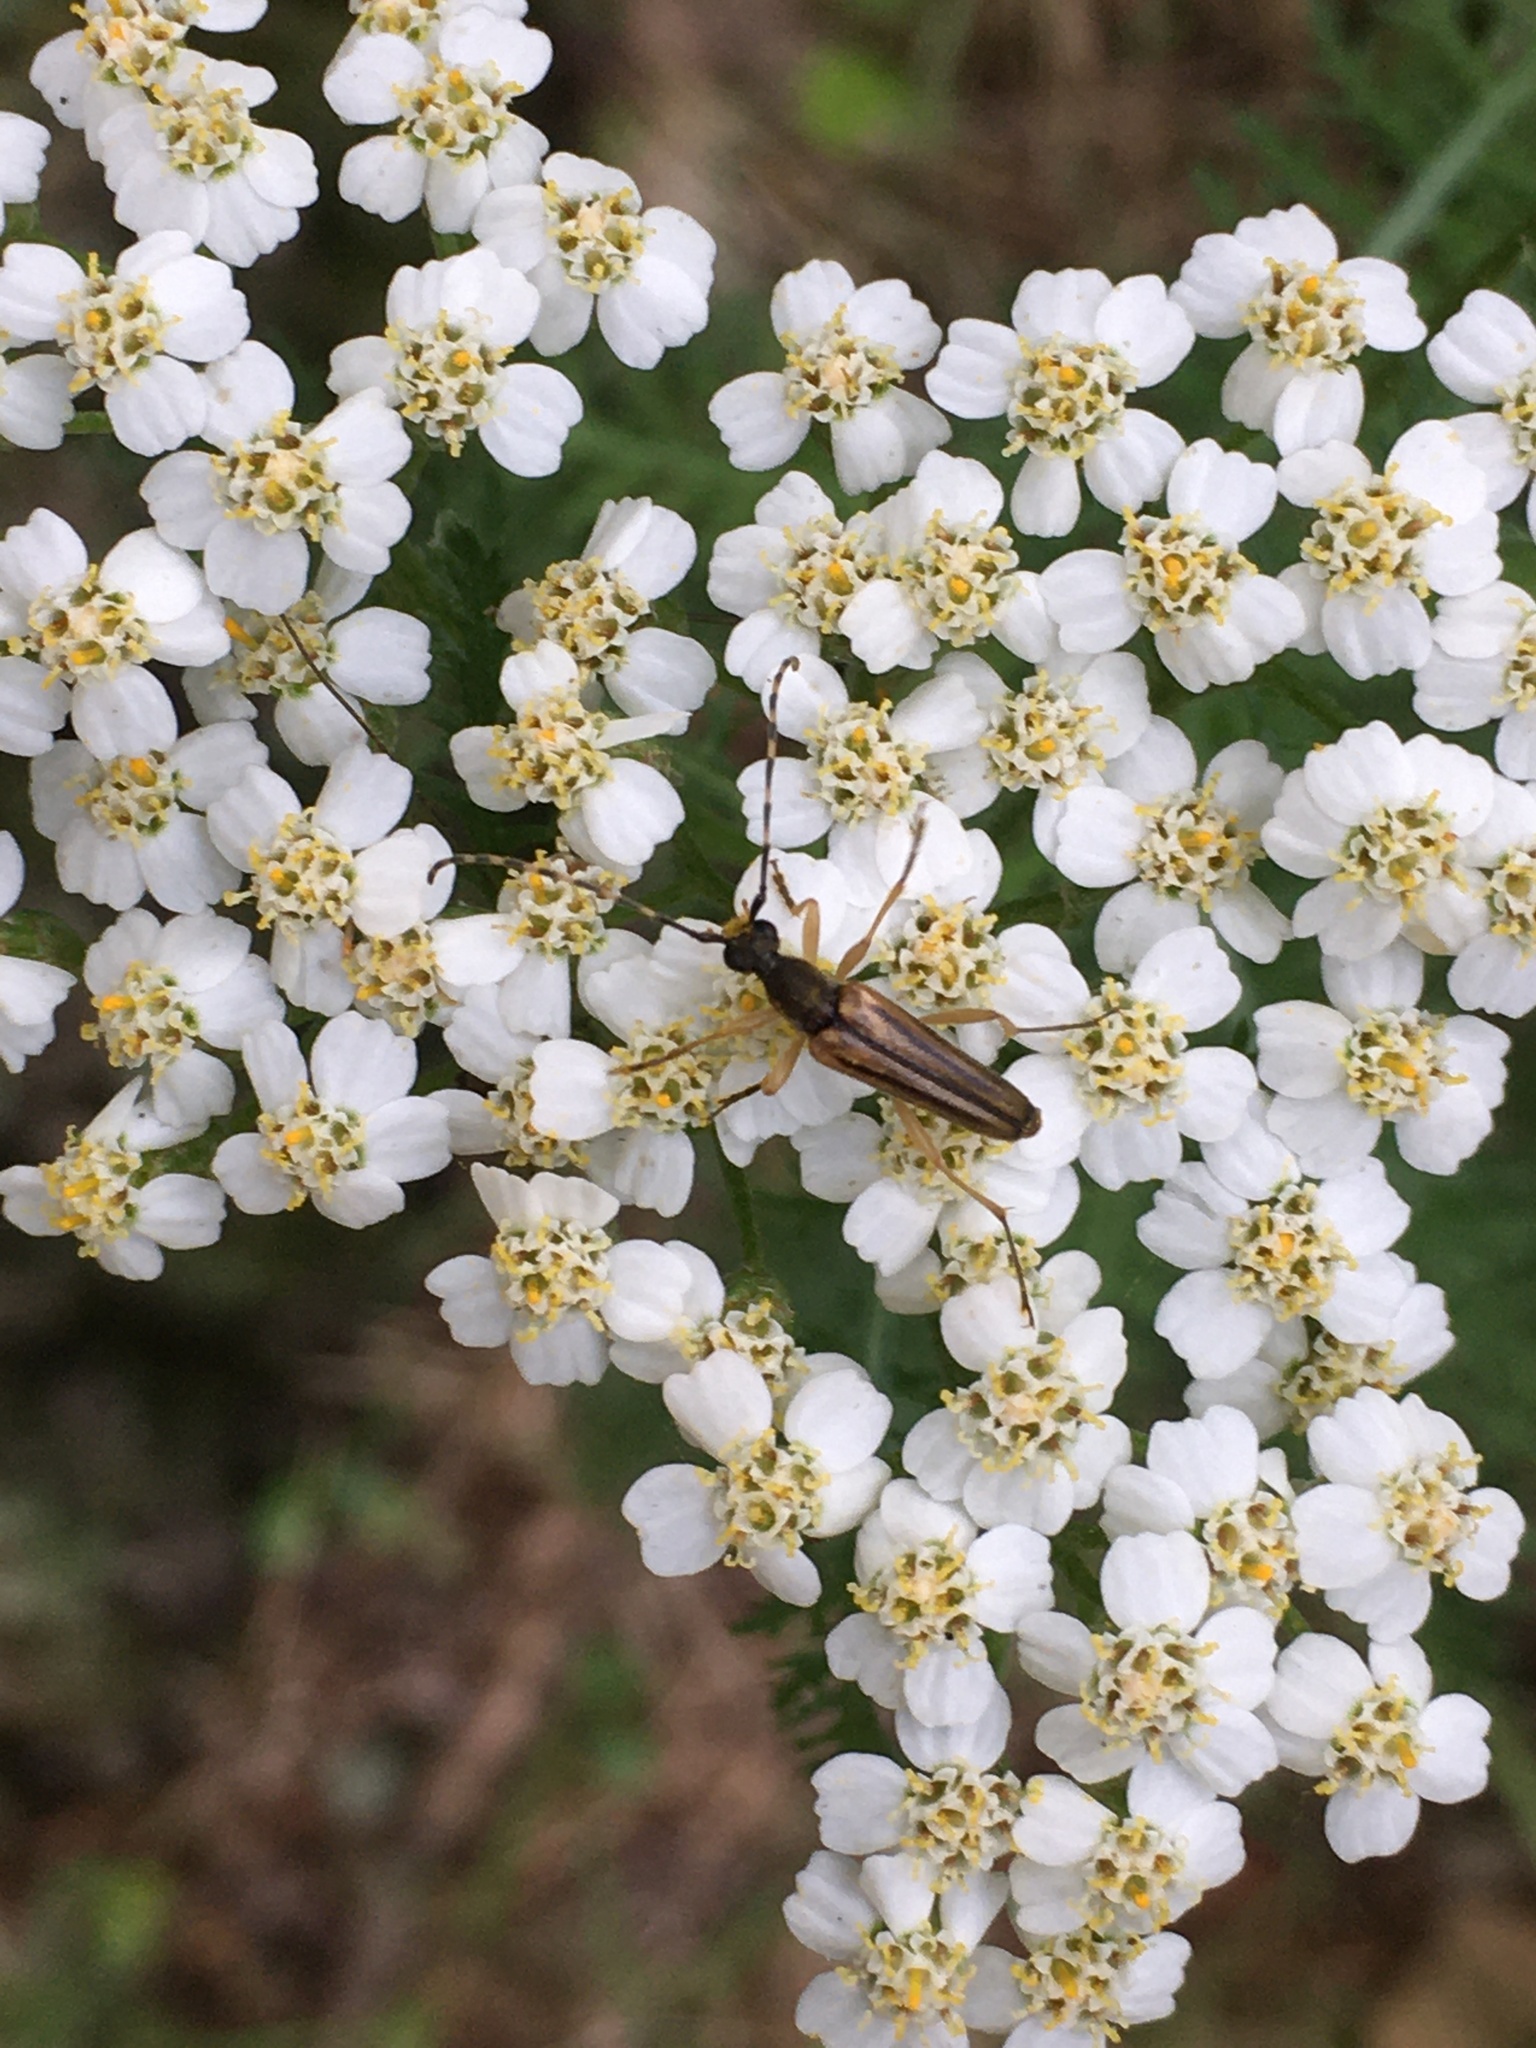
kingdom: Animalia
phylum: Arthropoda
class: Insecta
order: Coleoptera
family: Cerambycidae
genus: Analeptura
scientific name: Analeptura lineola
